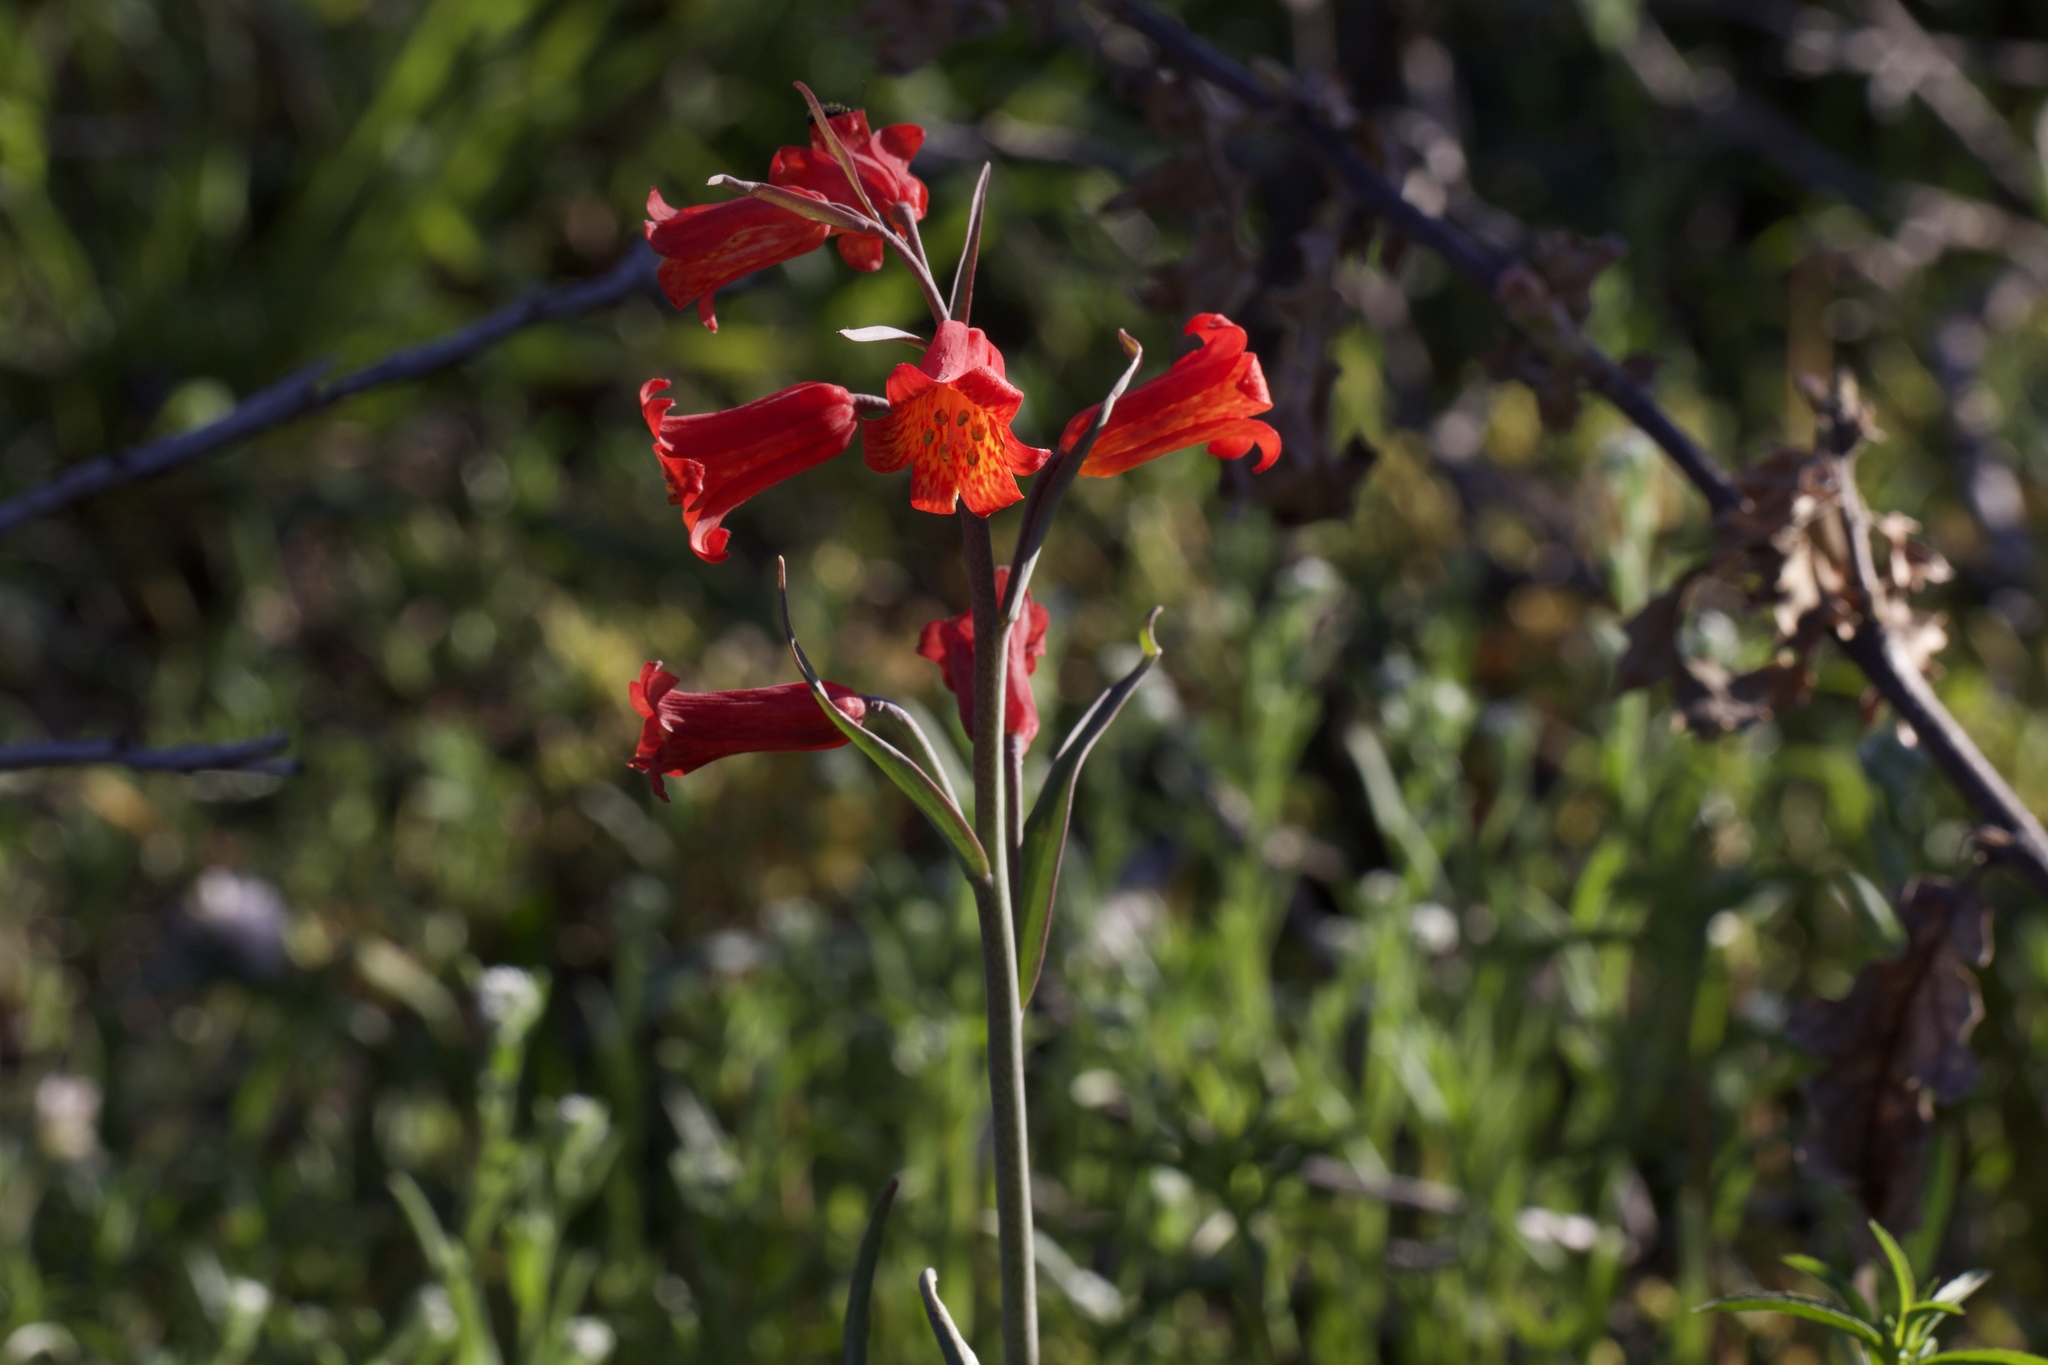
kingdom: Plantae
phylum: Tracheophyta
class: Liliopsida
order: Liliales
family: Liliaceae
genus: Fritillaria
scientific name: Fritillaria recurva
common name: Scarlet fritillary
